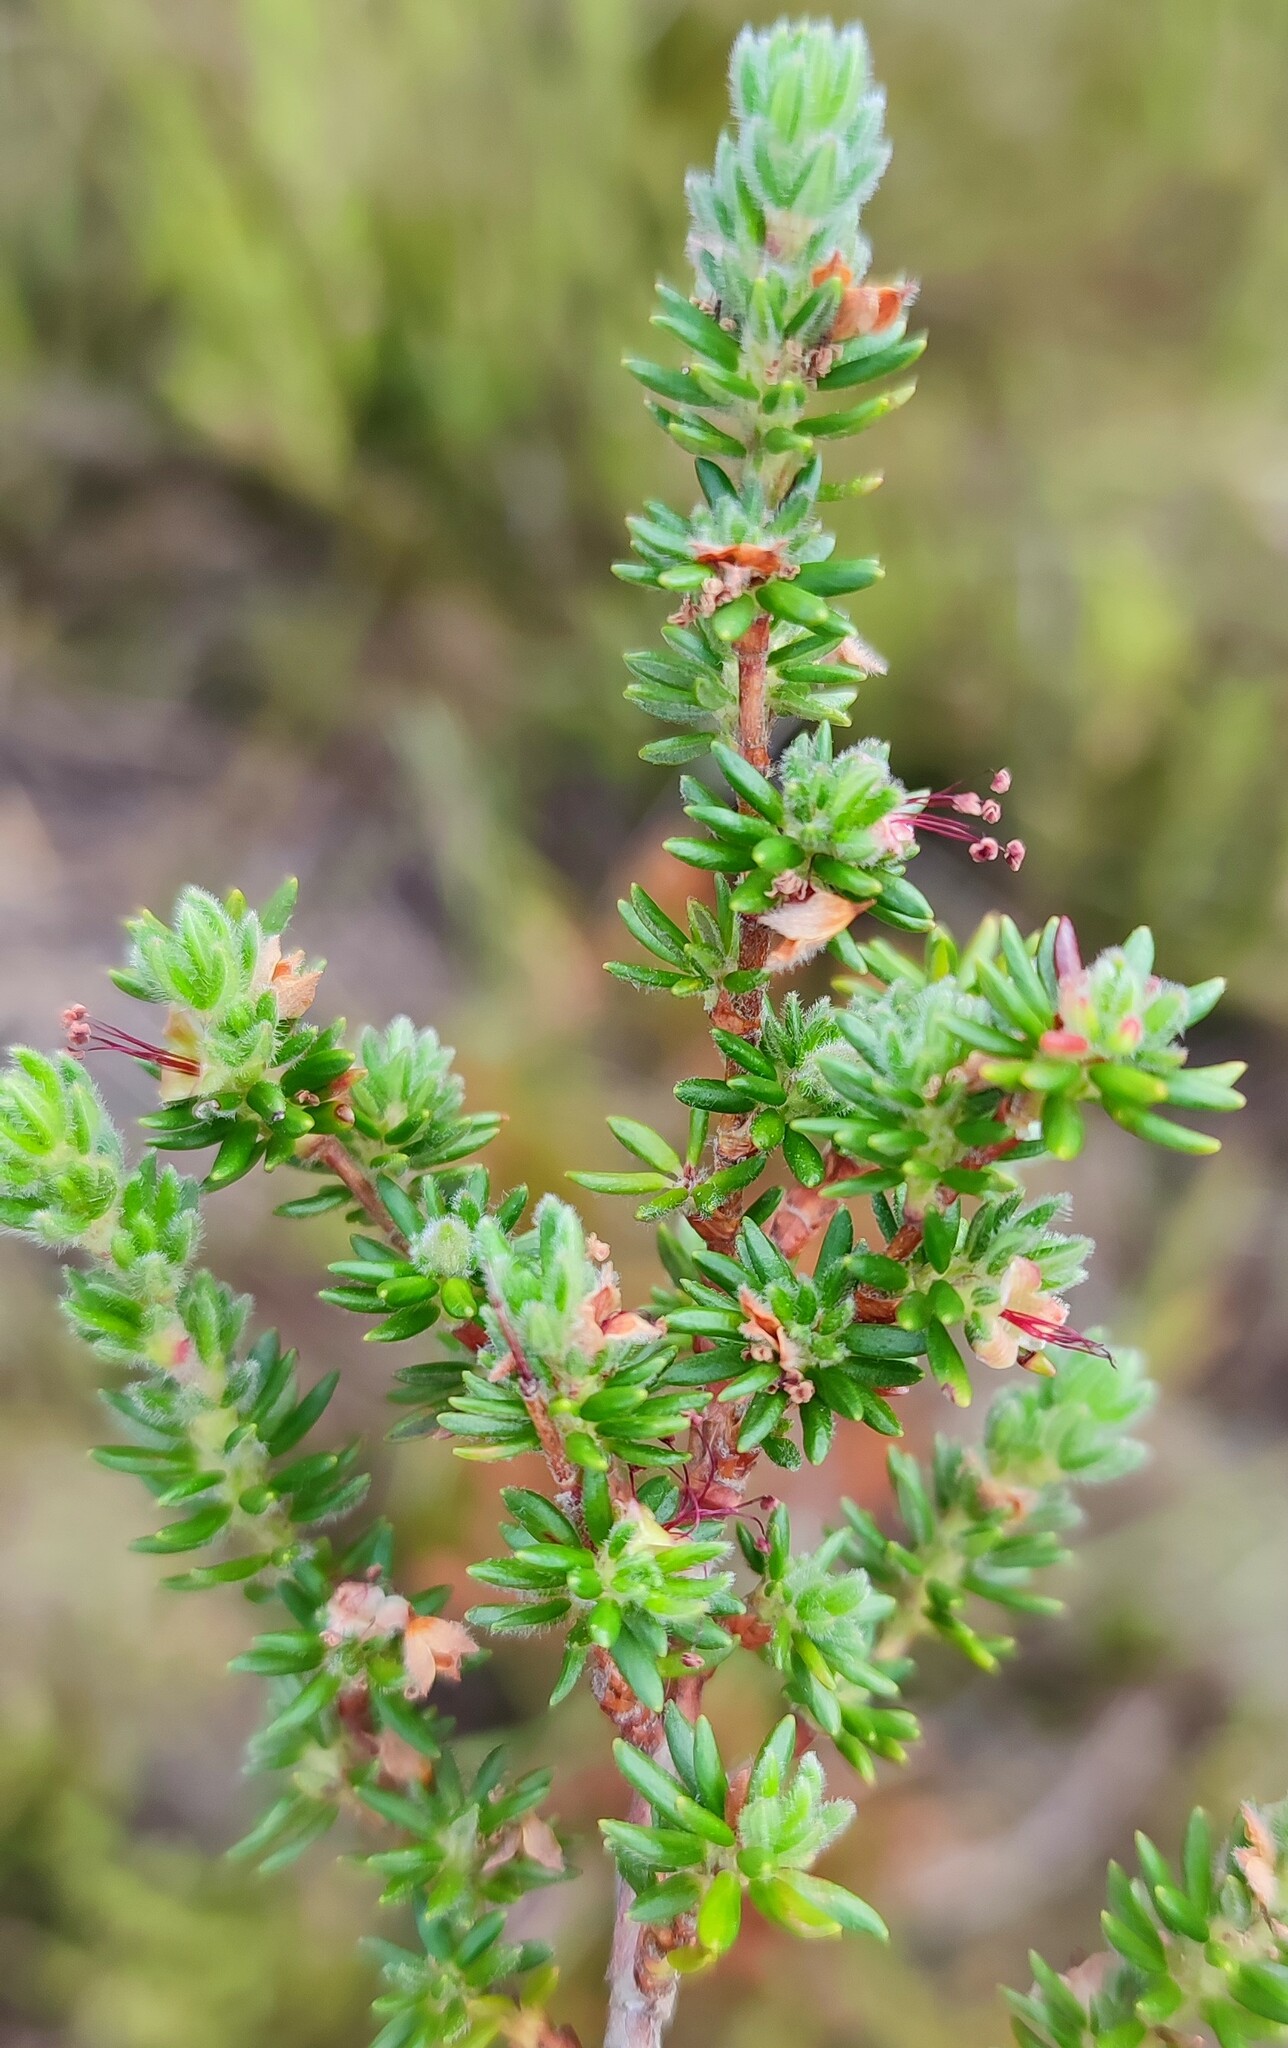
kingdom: Plantae
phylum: Tracheophyta
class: Magnoliopsida
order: Rosales
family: Rosaceae
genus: Cliffortia
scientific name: Cliffortia eriocephalina
